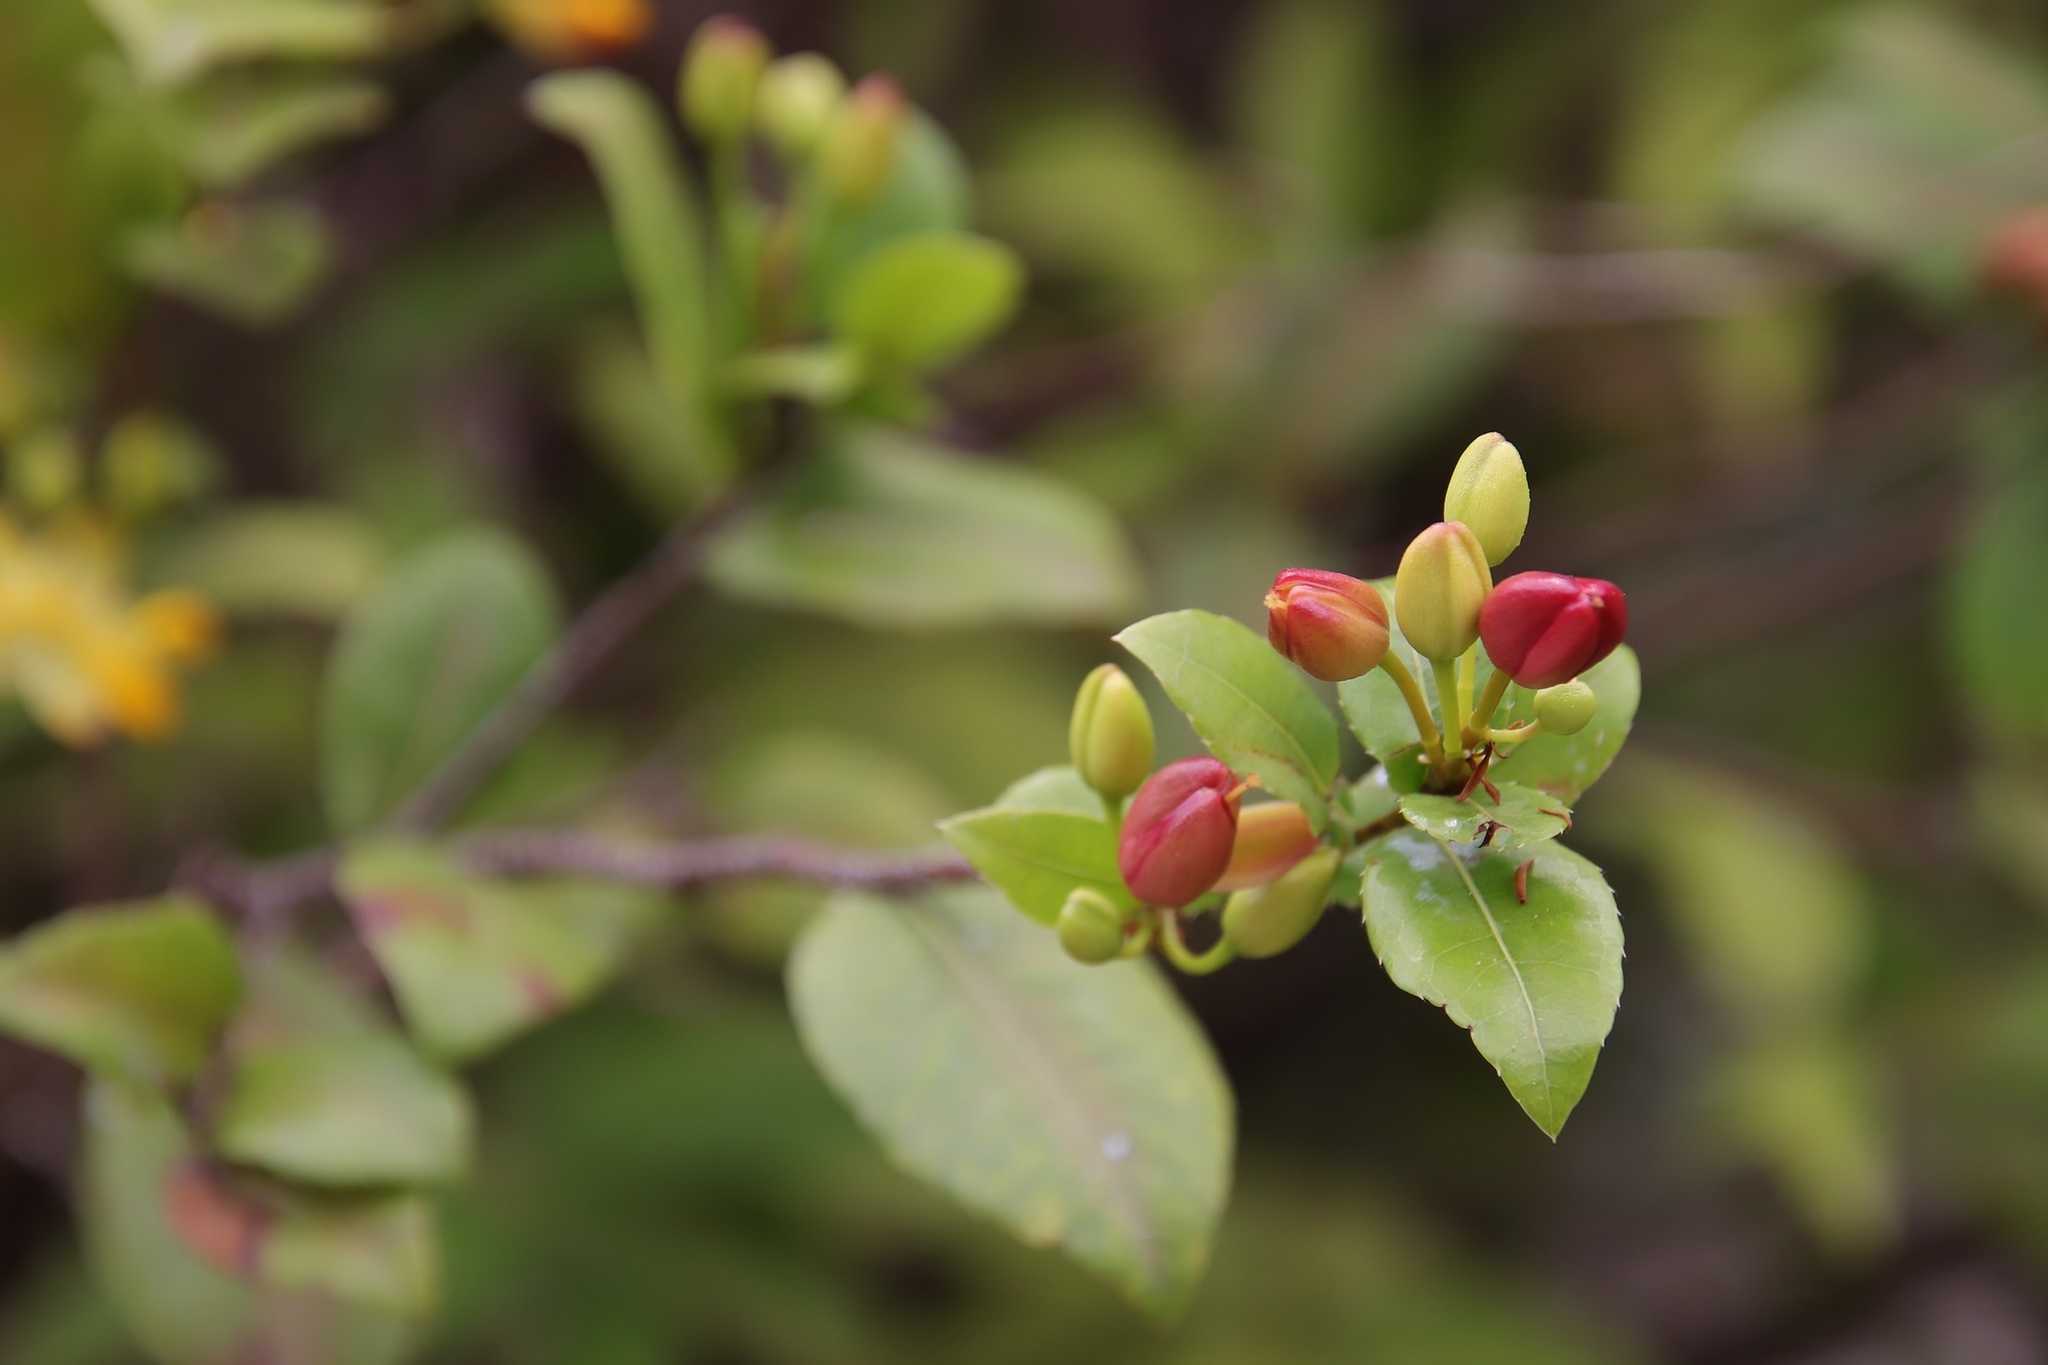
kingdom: Plantae
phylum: Tracheophyta
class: Magnoliopsida
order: Malpighiales
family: Ochnaceae
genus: Ochna
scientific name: Ochna serrulata
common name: Mickey mouse plant
